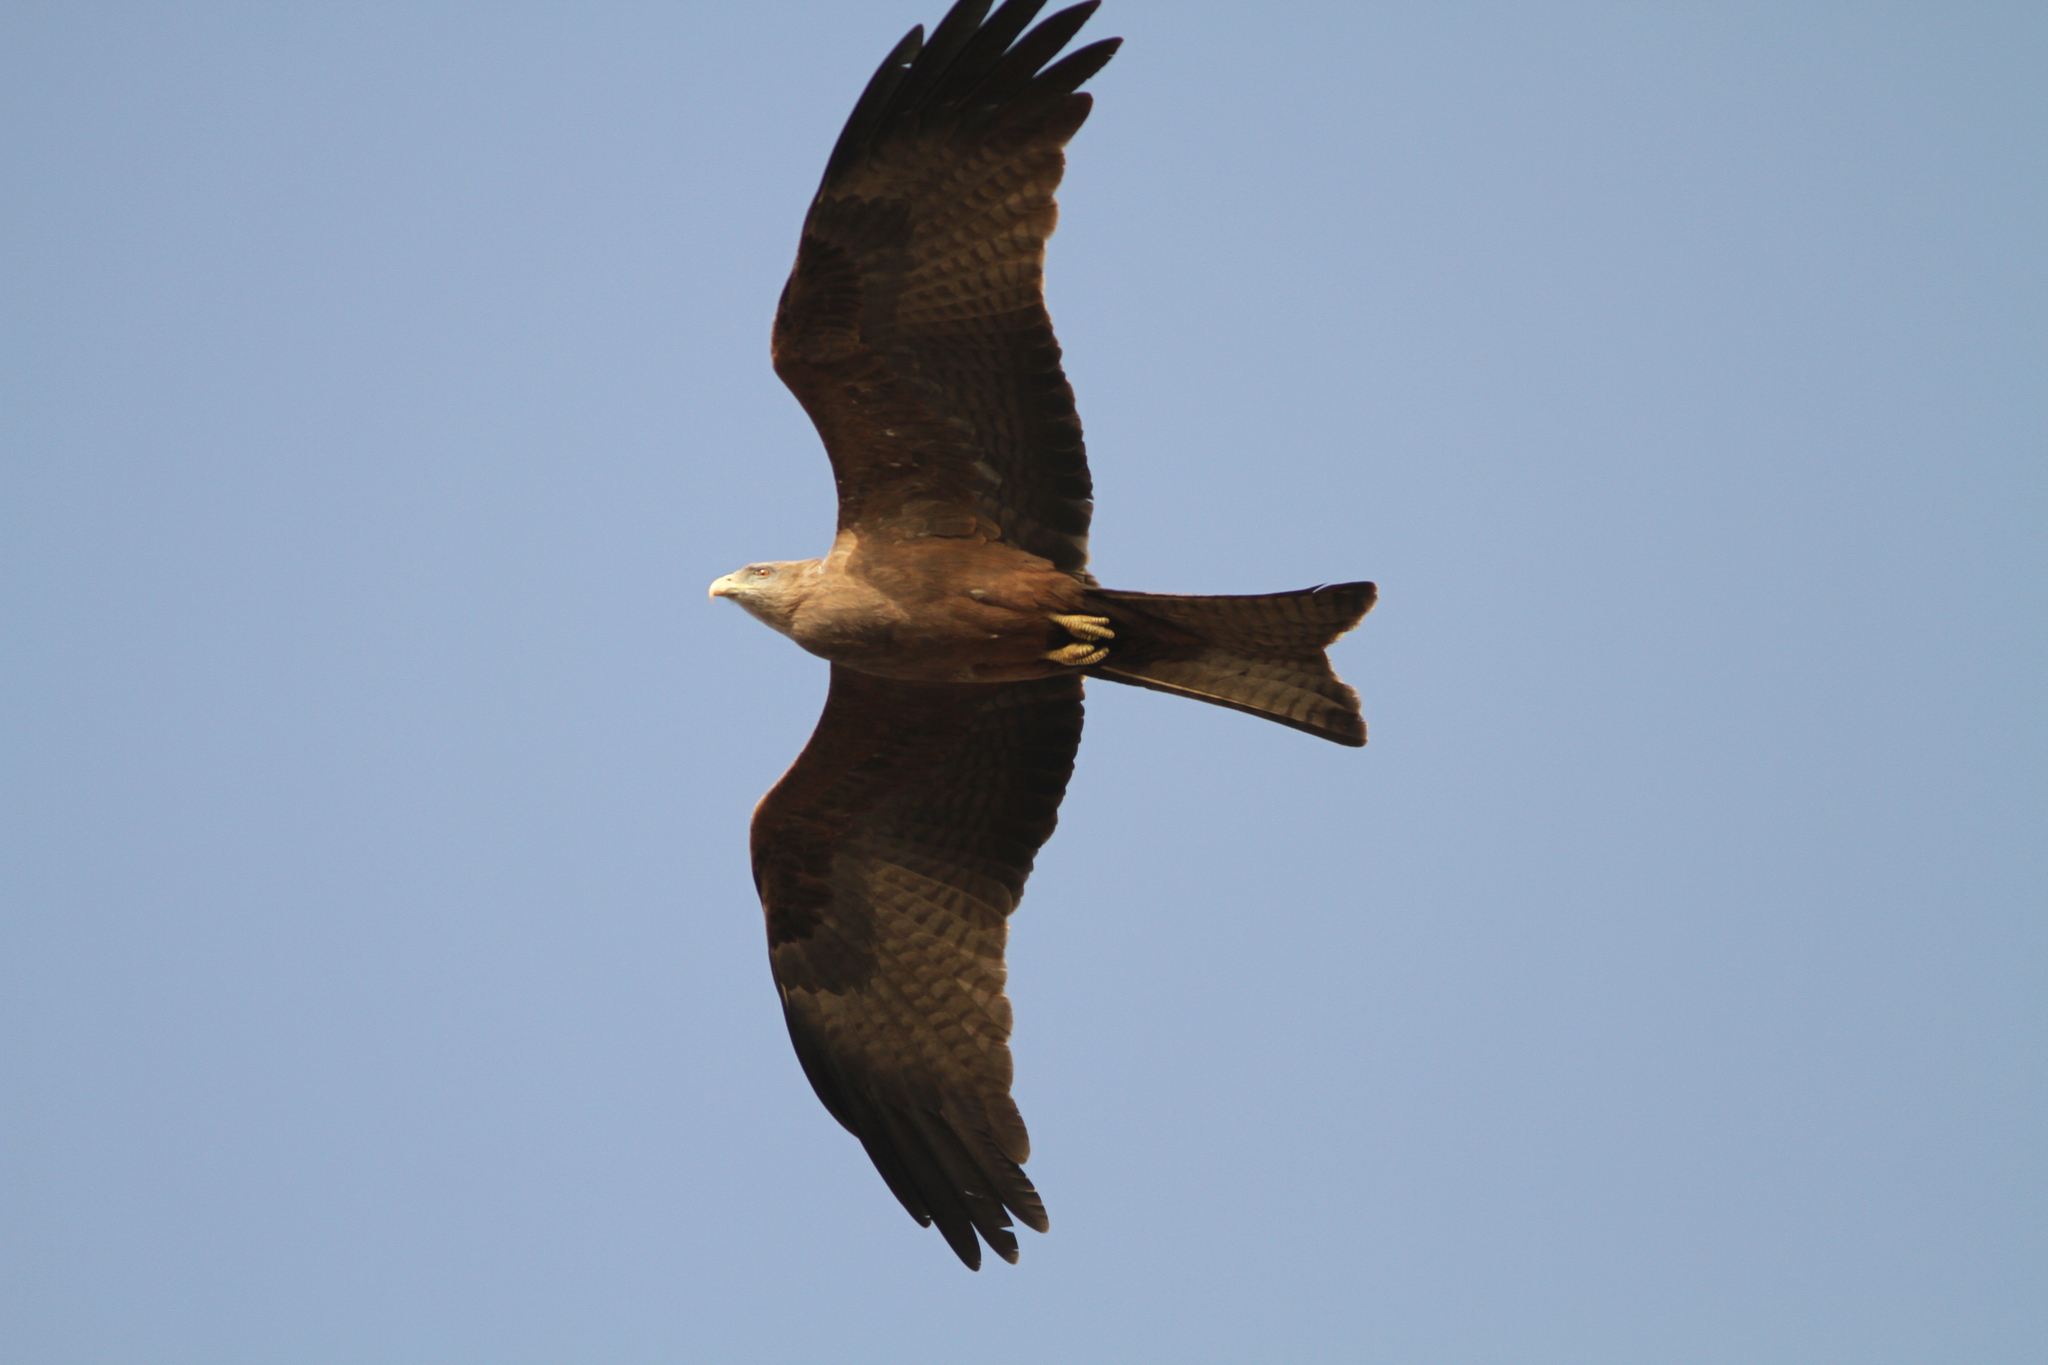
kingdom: Animalia
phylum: Chordata
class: Aves
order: Accipitriformes
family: Accipitridae
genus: Milvus
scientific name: Milvus migrans
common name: Black kite
